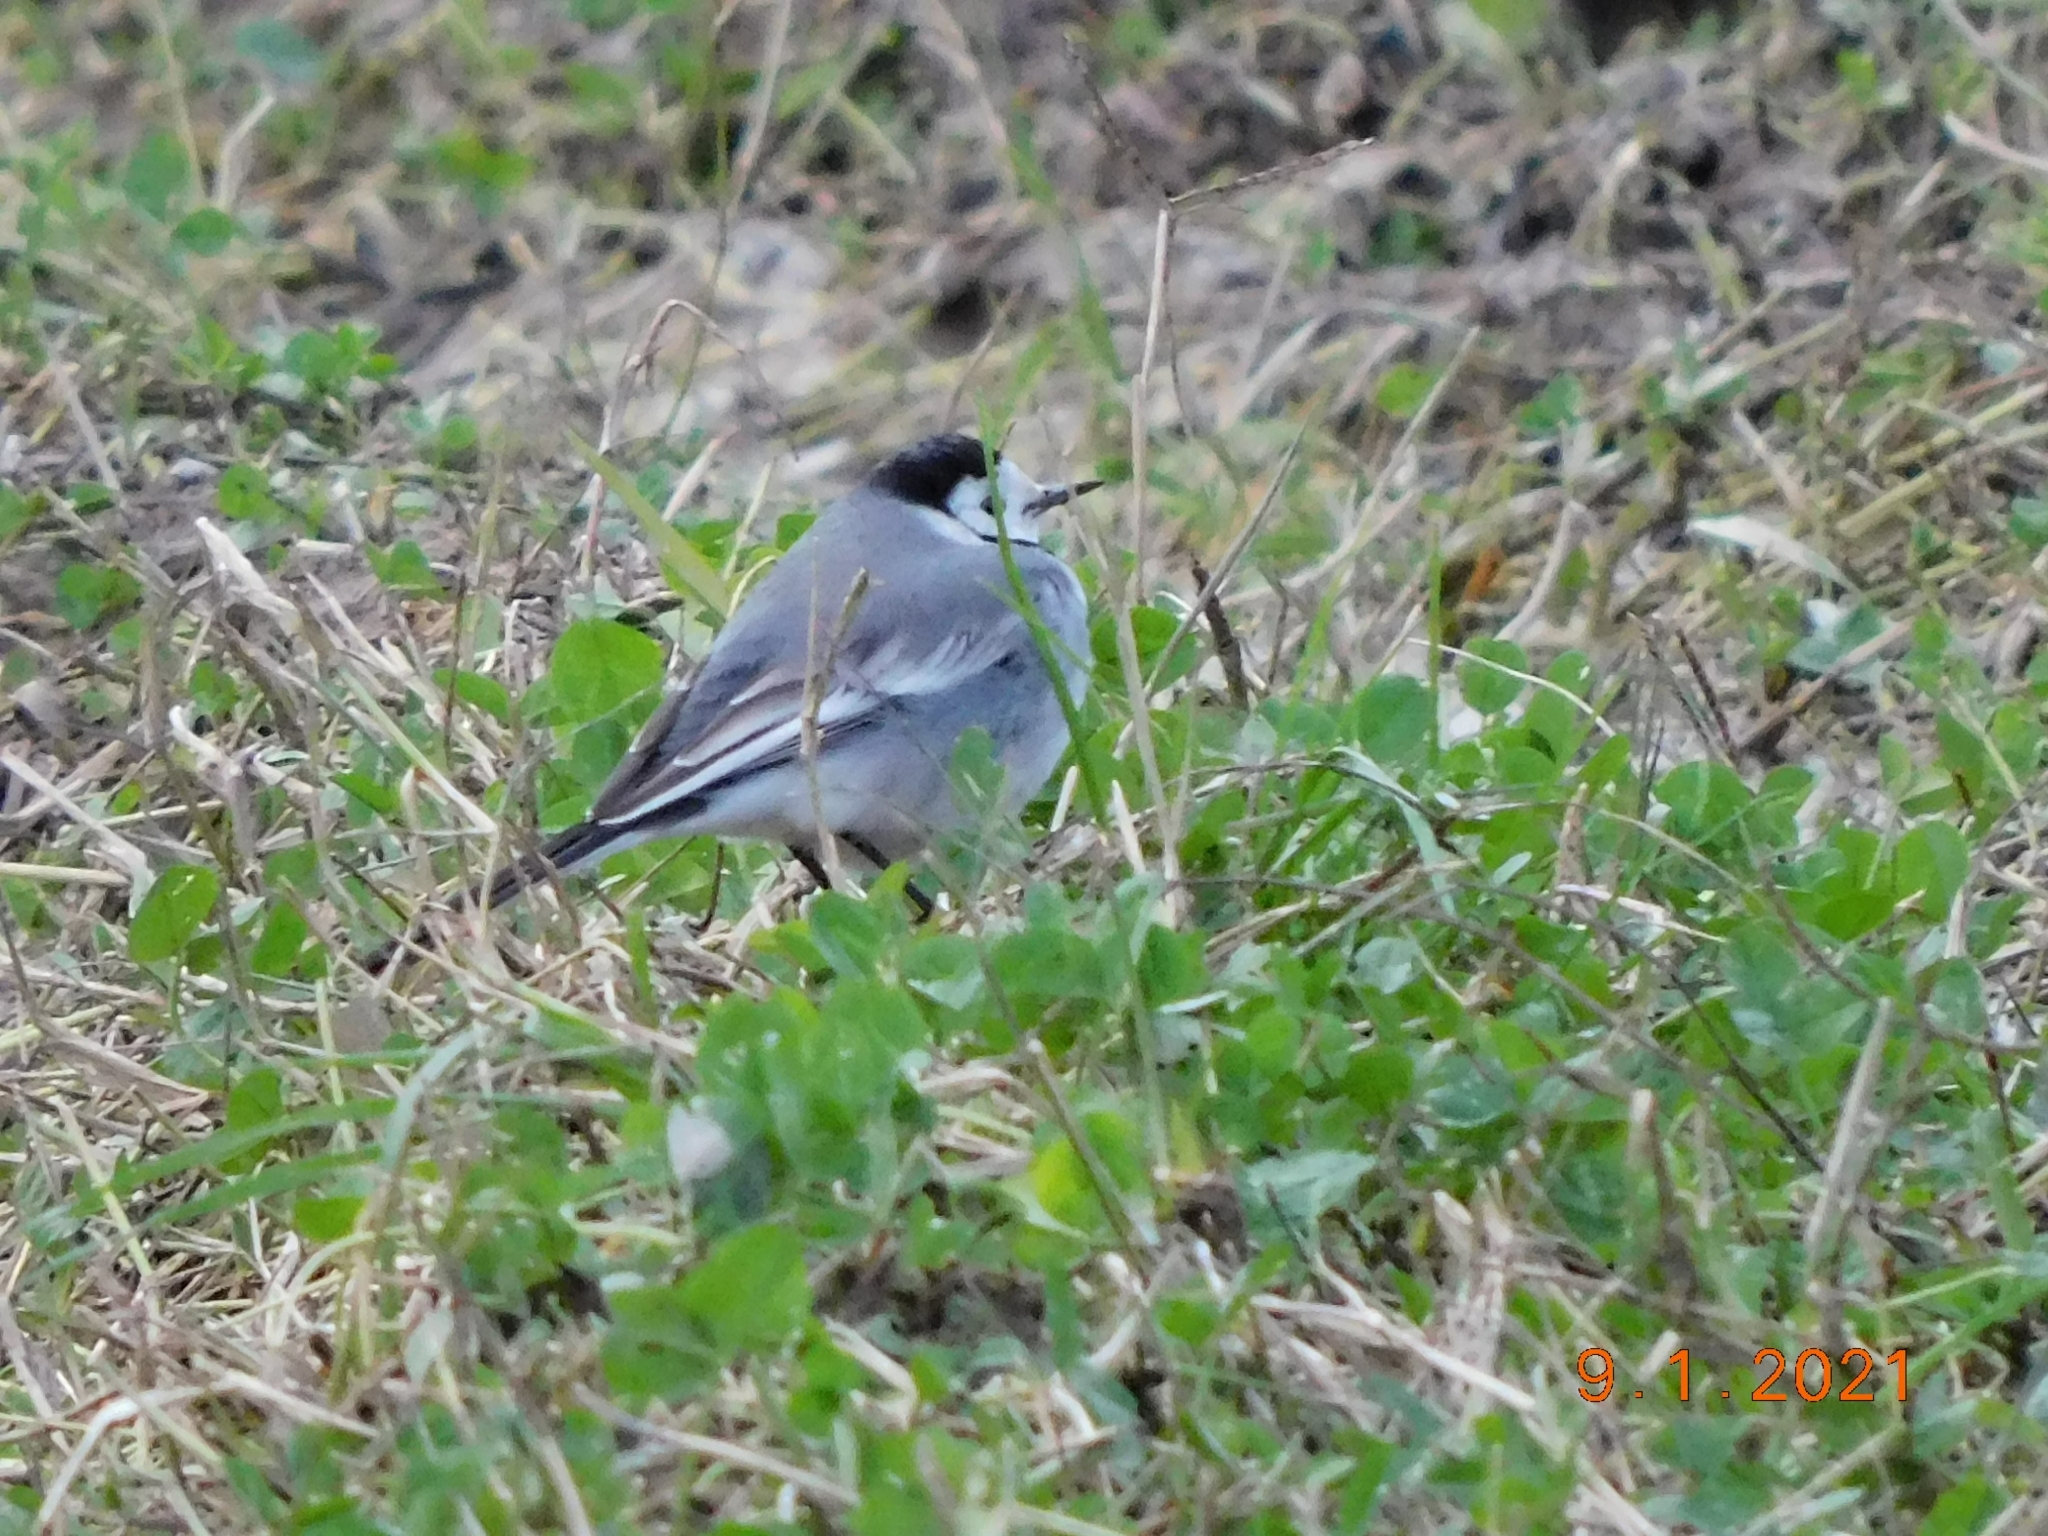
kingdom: Animalia
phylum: Chordata
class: Aves
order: Passeriformes
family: Motacillidae
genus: Motacilla
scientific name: Motacilla alba
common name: White wagtail
